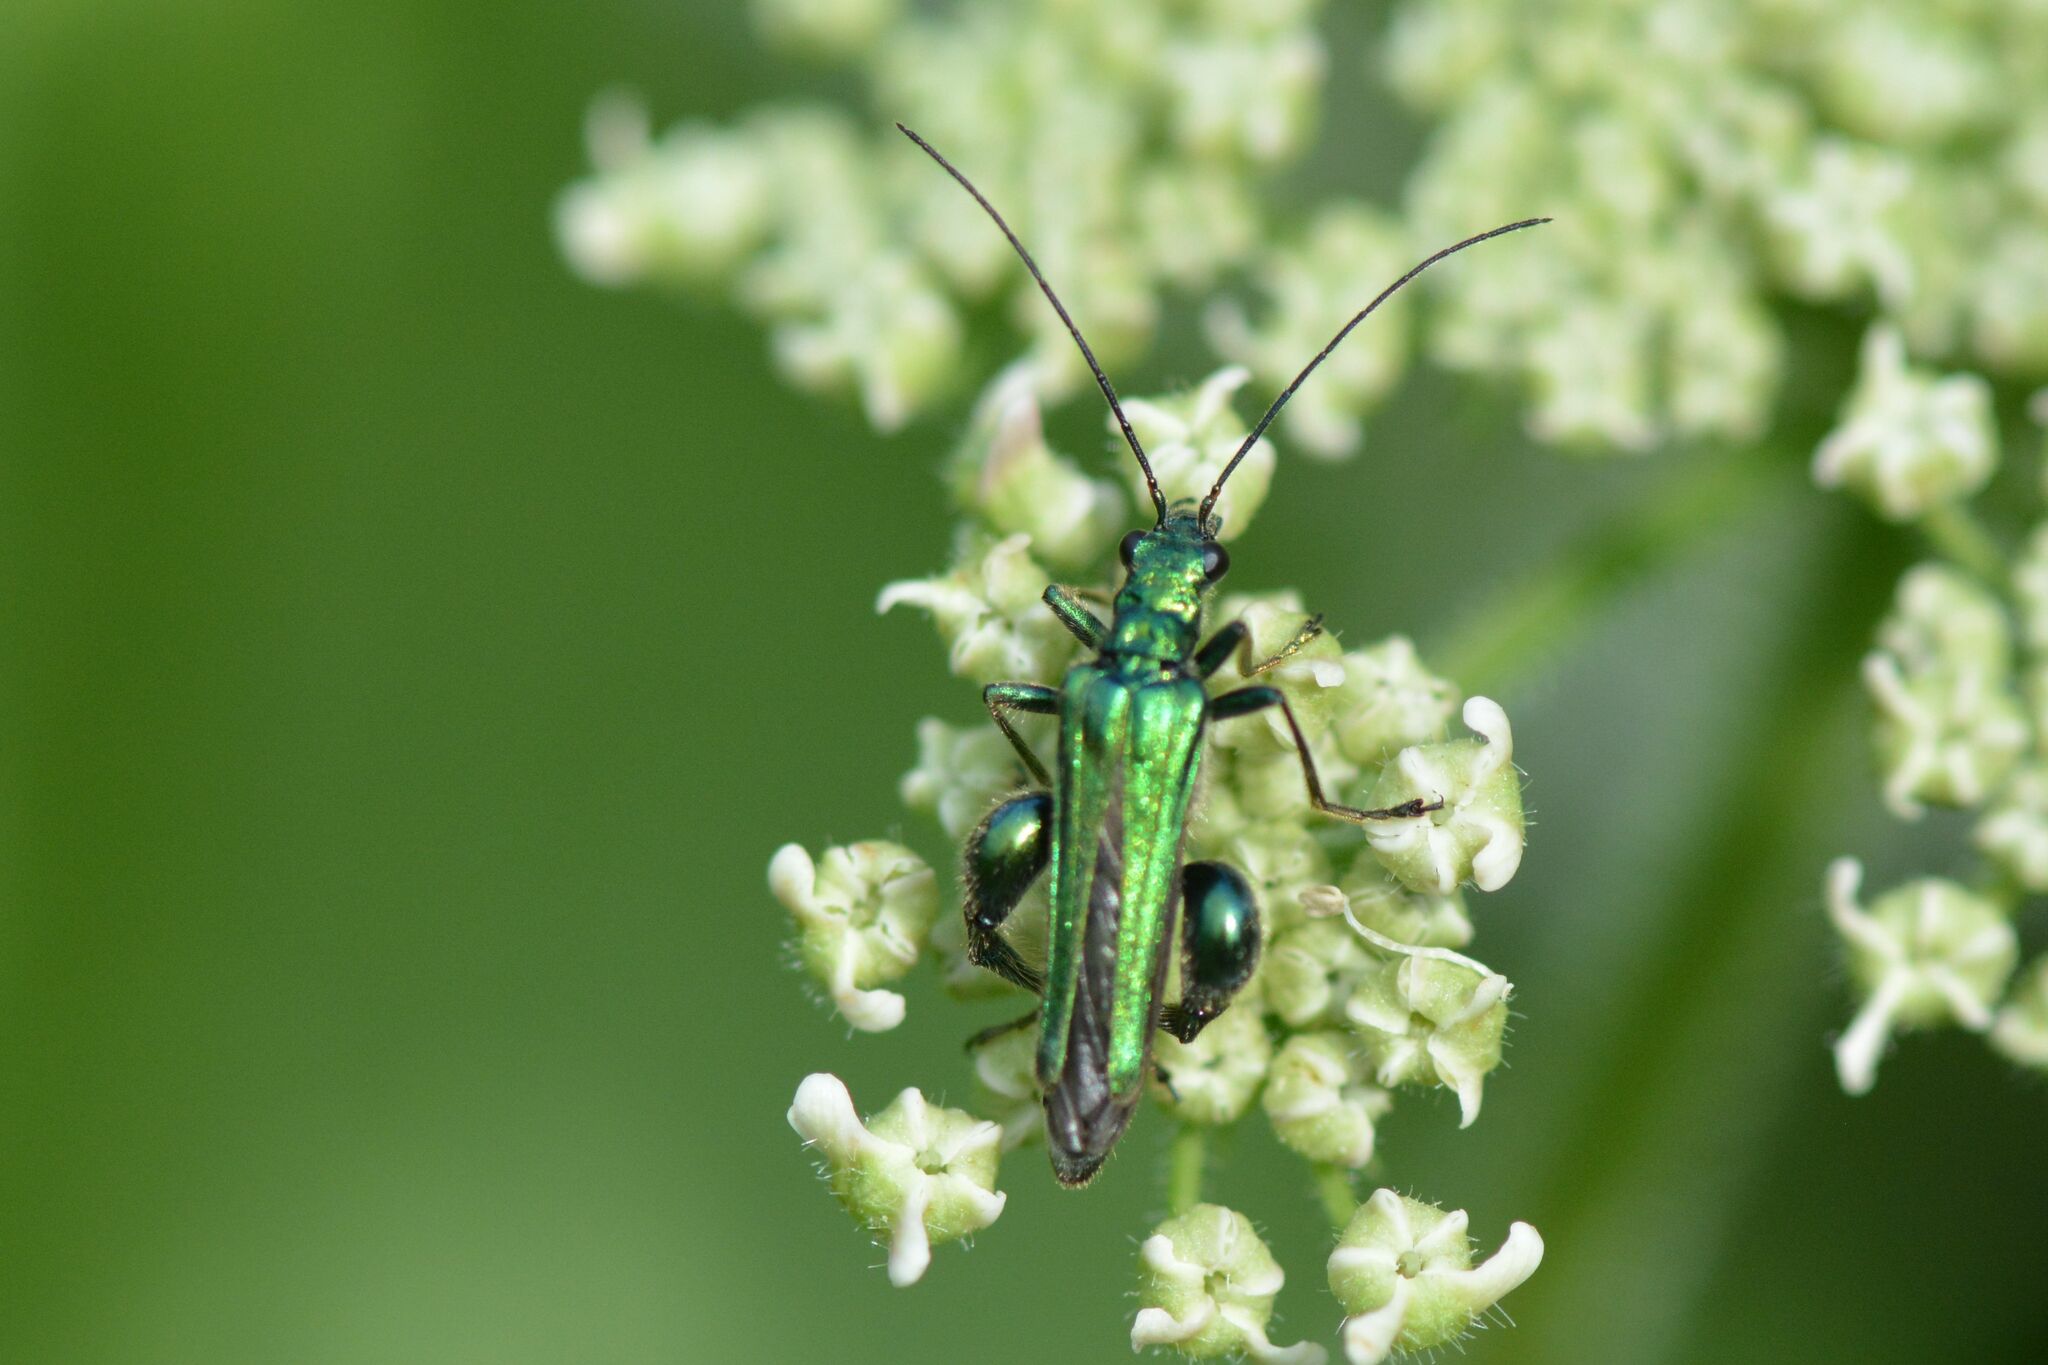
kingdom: Animalia
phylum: Arthropoda
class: Insecta
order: Coleoptera
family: Oedemeridae
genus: Oedemera
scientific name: Oedemera nobilis
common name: Swollen-thighed beetle
